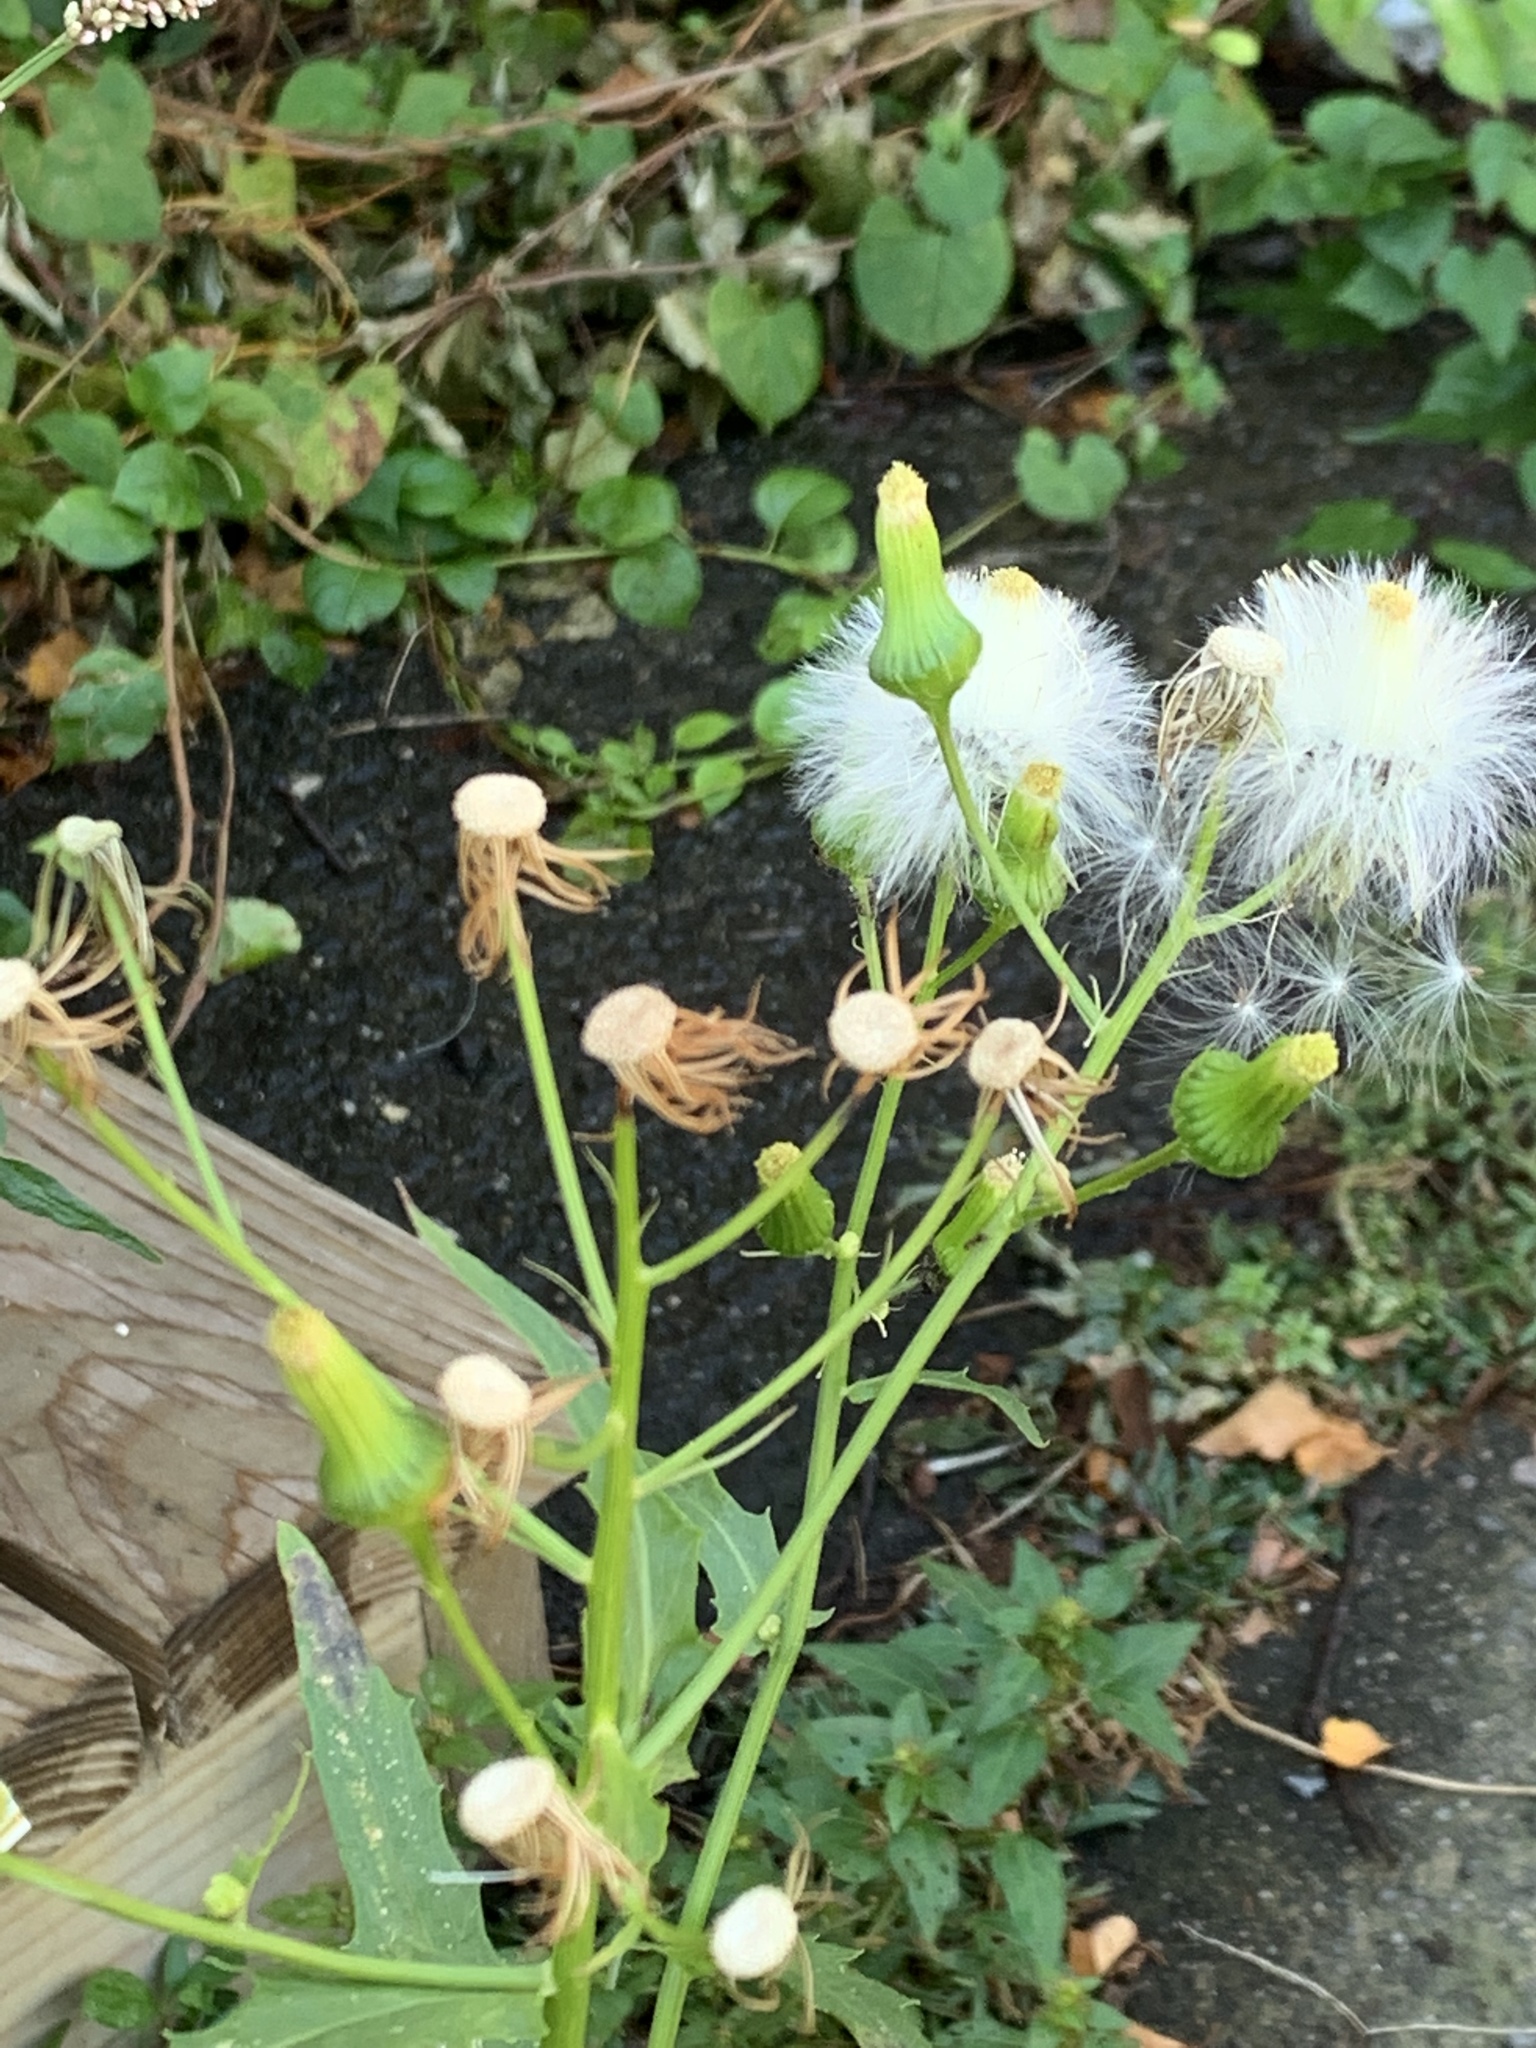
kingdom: Plantae
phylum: Tracheophyta
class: Magnoliopsida
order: Asterales
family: Asteraceae
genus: Erechtites
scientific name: Erechtites hieraciifolius
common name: American burnweed
